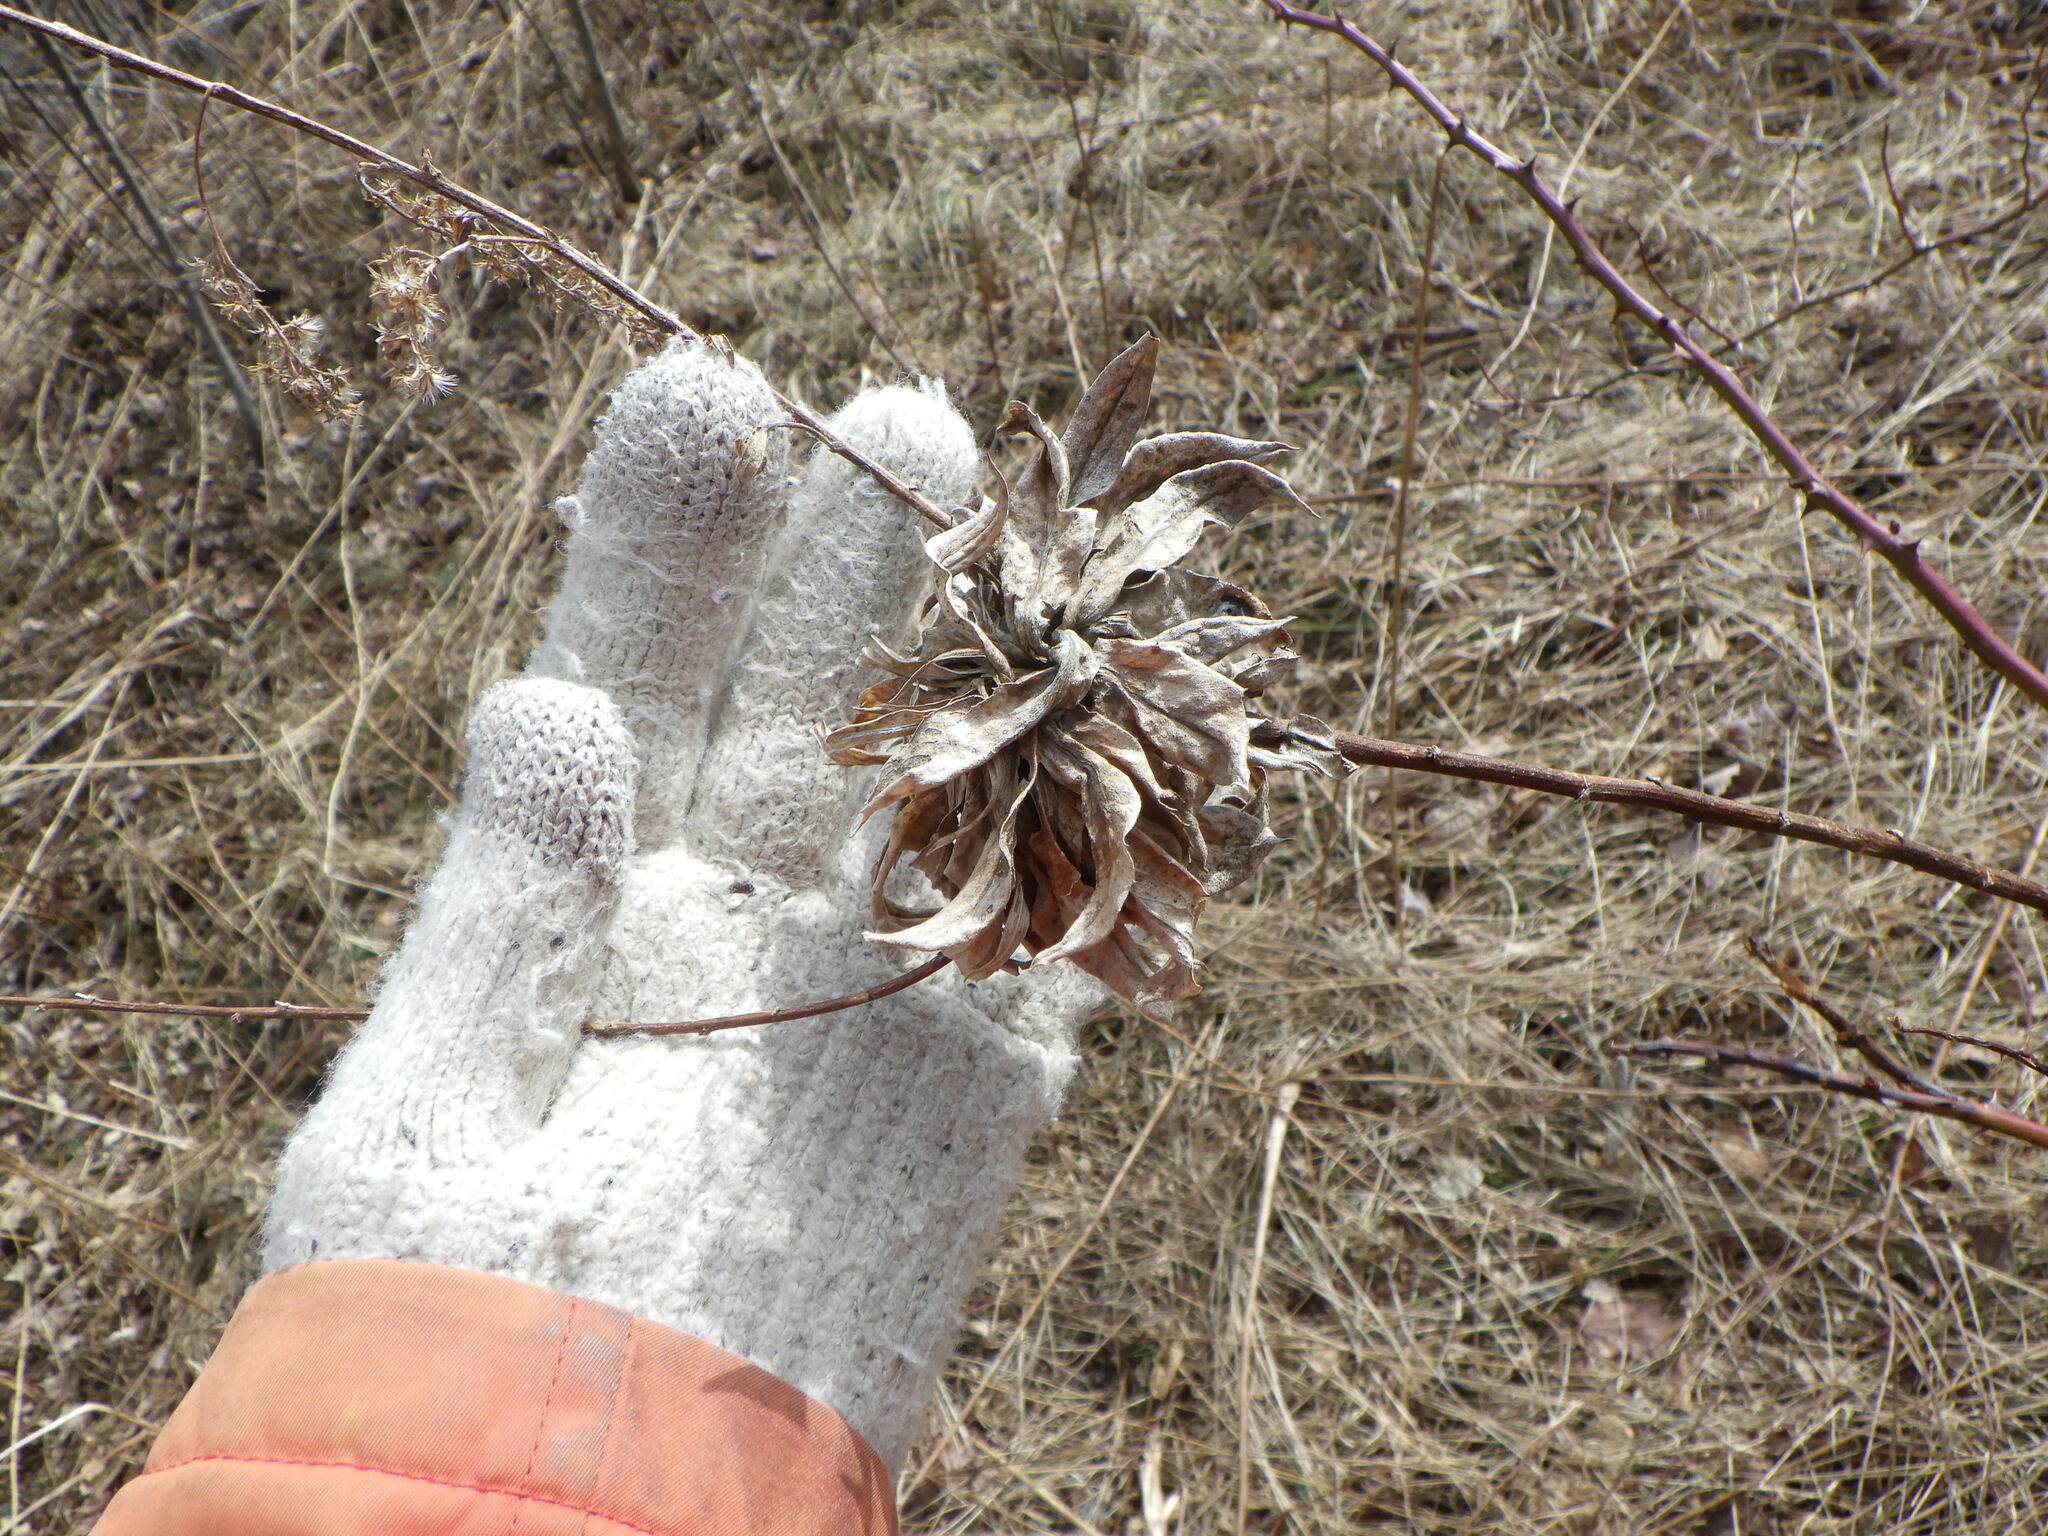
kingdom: Animalia
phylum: Arthropoda
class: Insecta
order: Diptera
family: Cecidomyiidae
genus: Rhopalomyia
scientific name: Rhopalomyia solidaginis
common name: Goldenrod bunch gall midge
